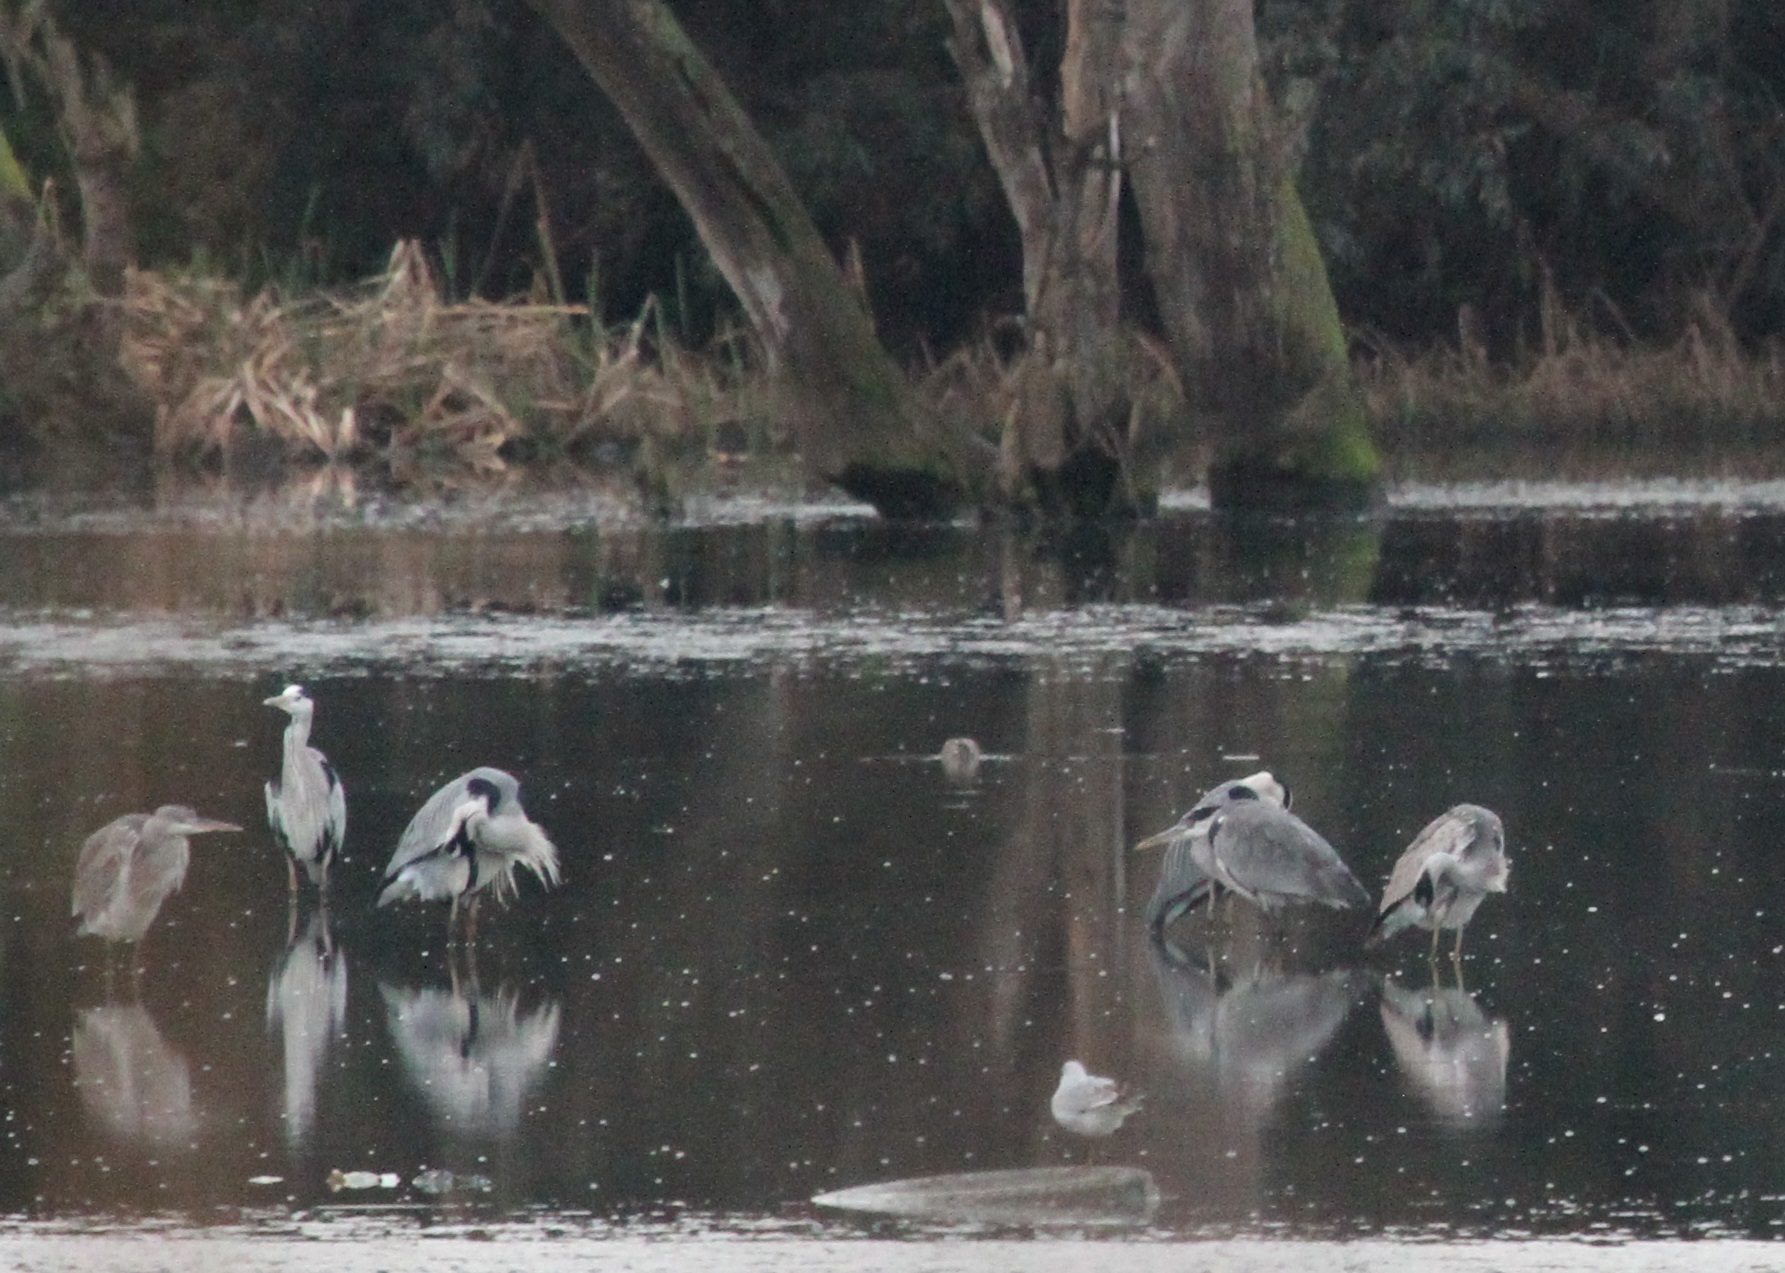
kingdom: Animalia
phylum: Chordata
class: Aves
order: Pelecaniformes
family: Ardeidae
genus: Ardea
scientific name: Ardea cinerea
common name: Grey heron
